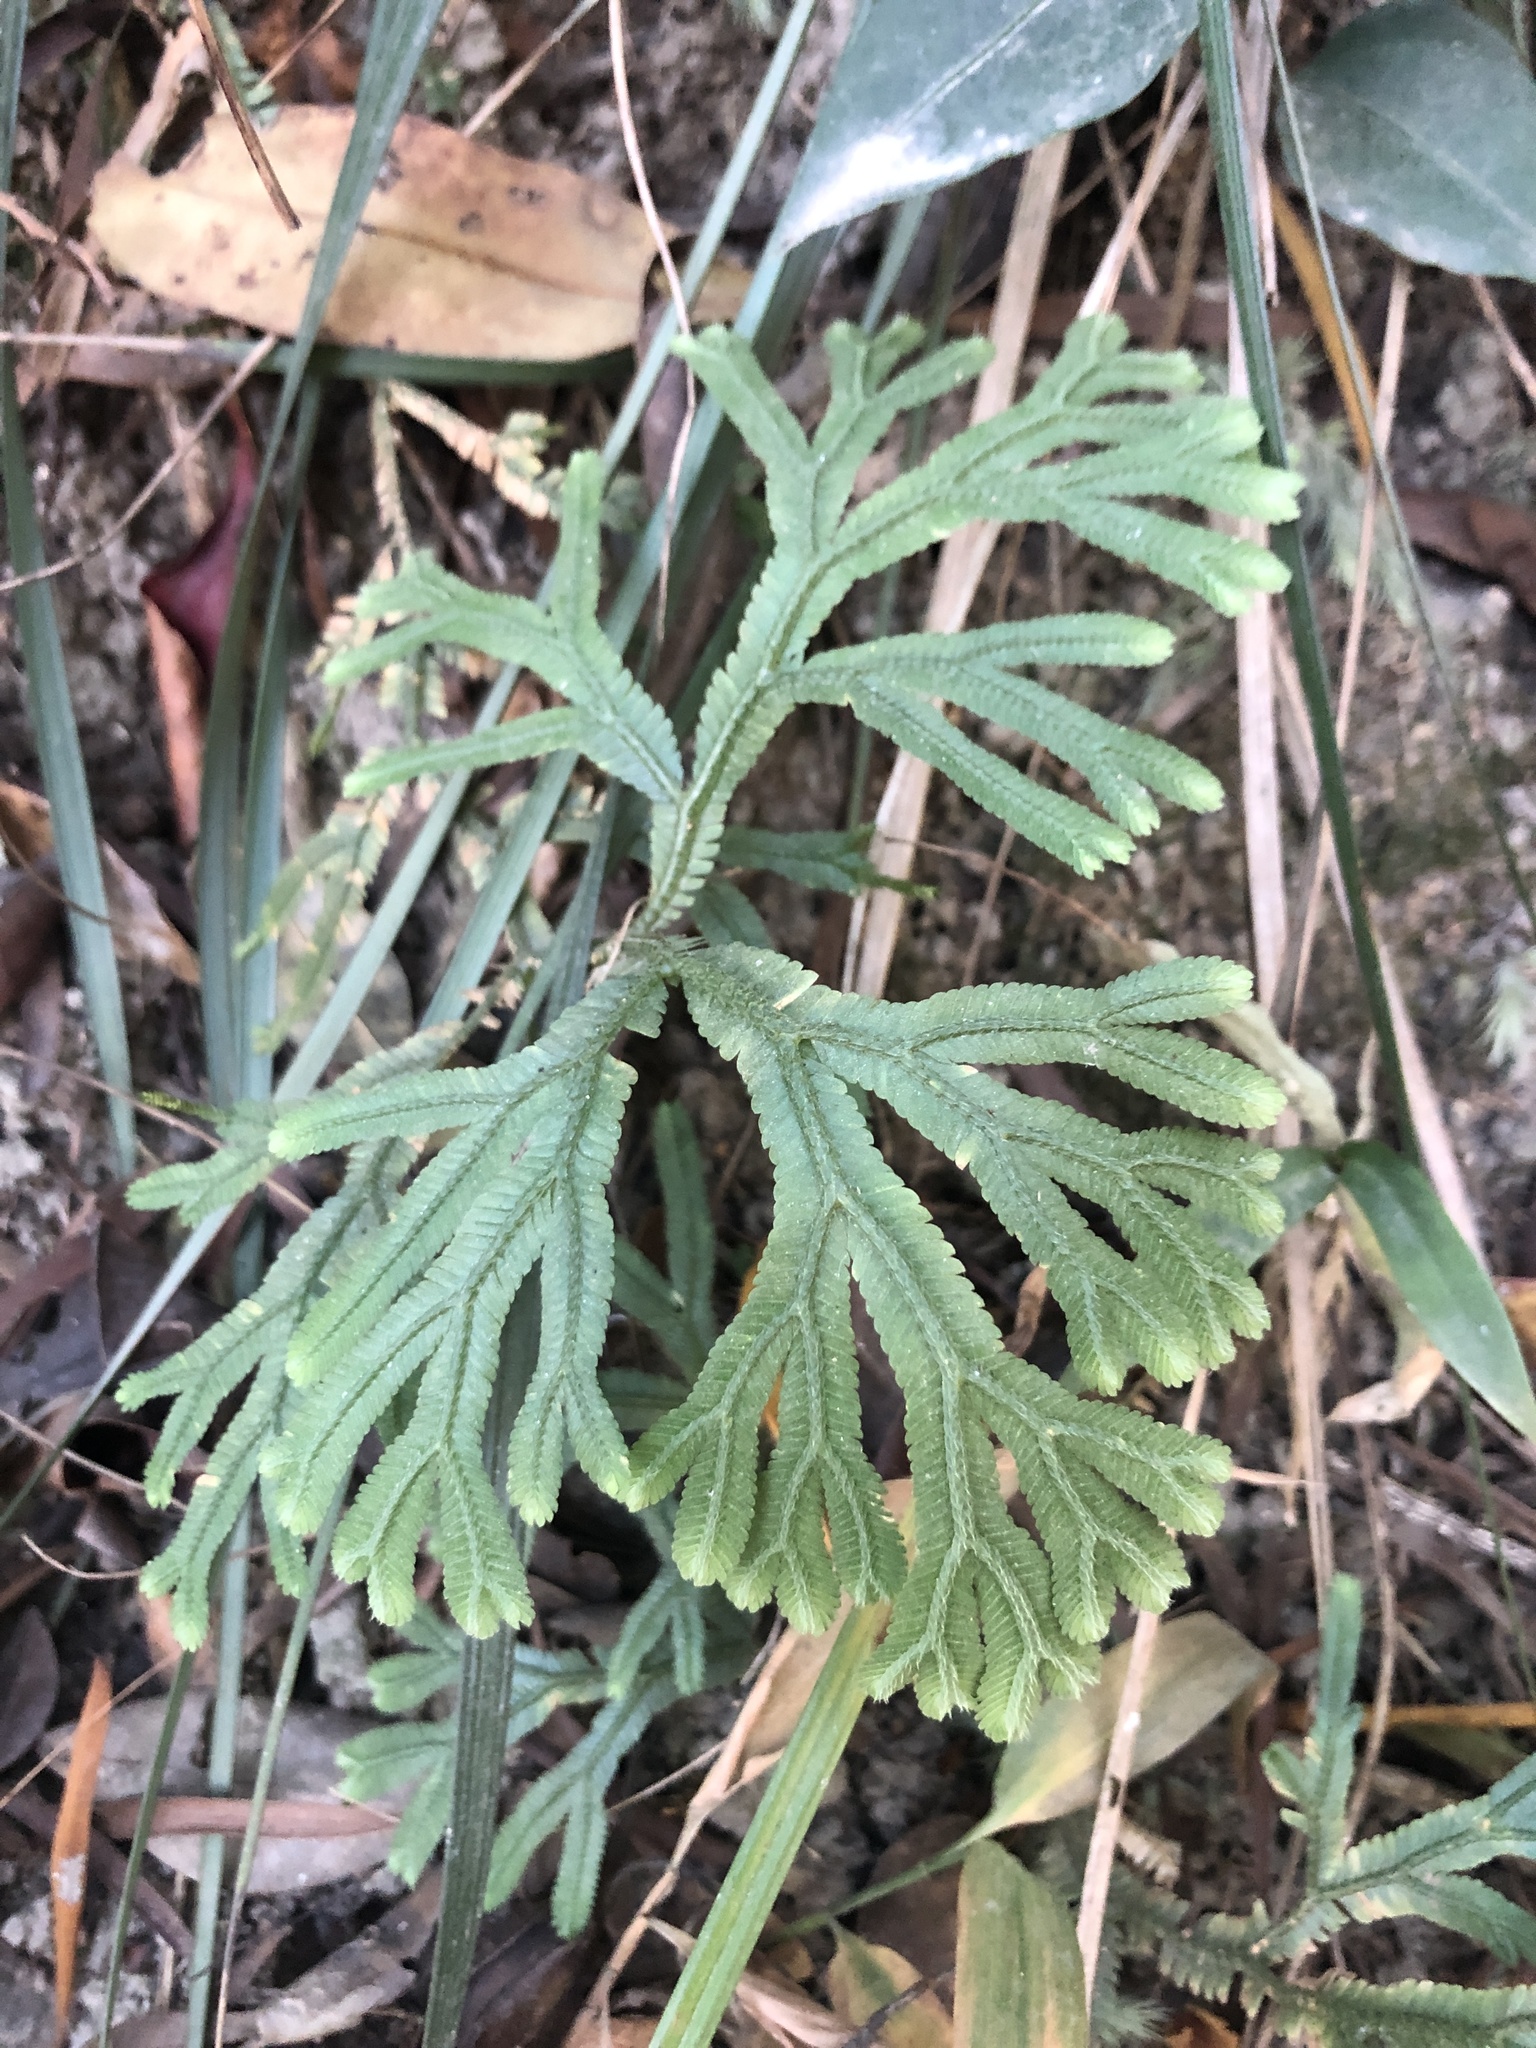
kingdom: Plantae
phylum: Tracheophyta
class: Lycopodiopsida
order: Selaginellales
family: Selaginellaceae
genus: Selaginella
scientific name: Selaginella doederleinii
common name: Greater selaginella
